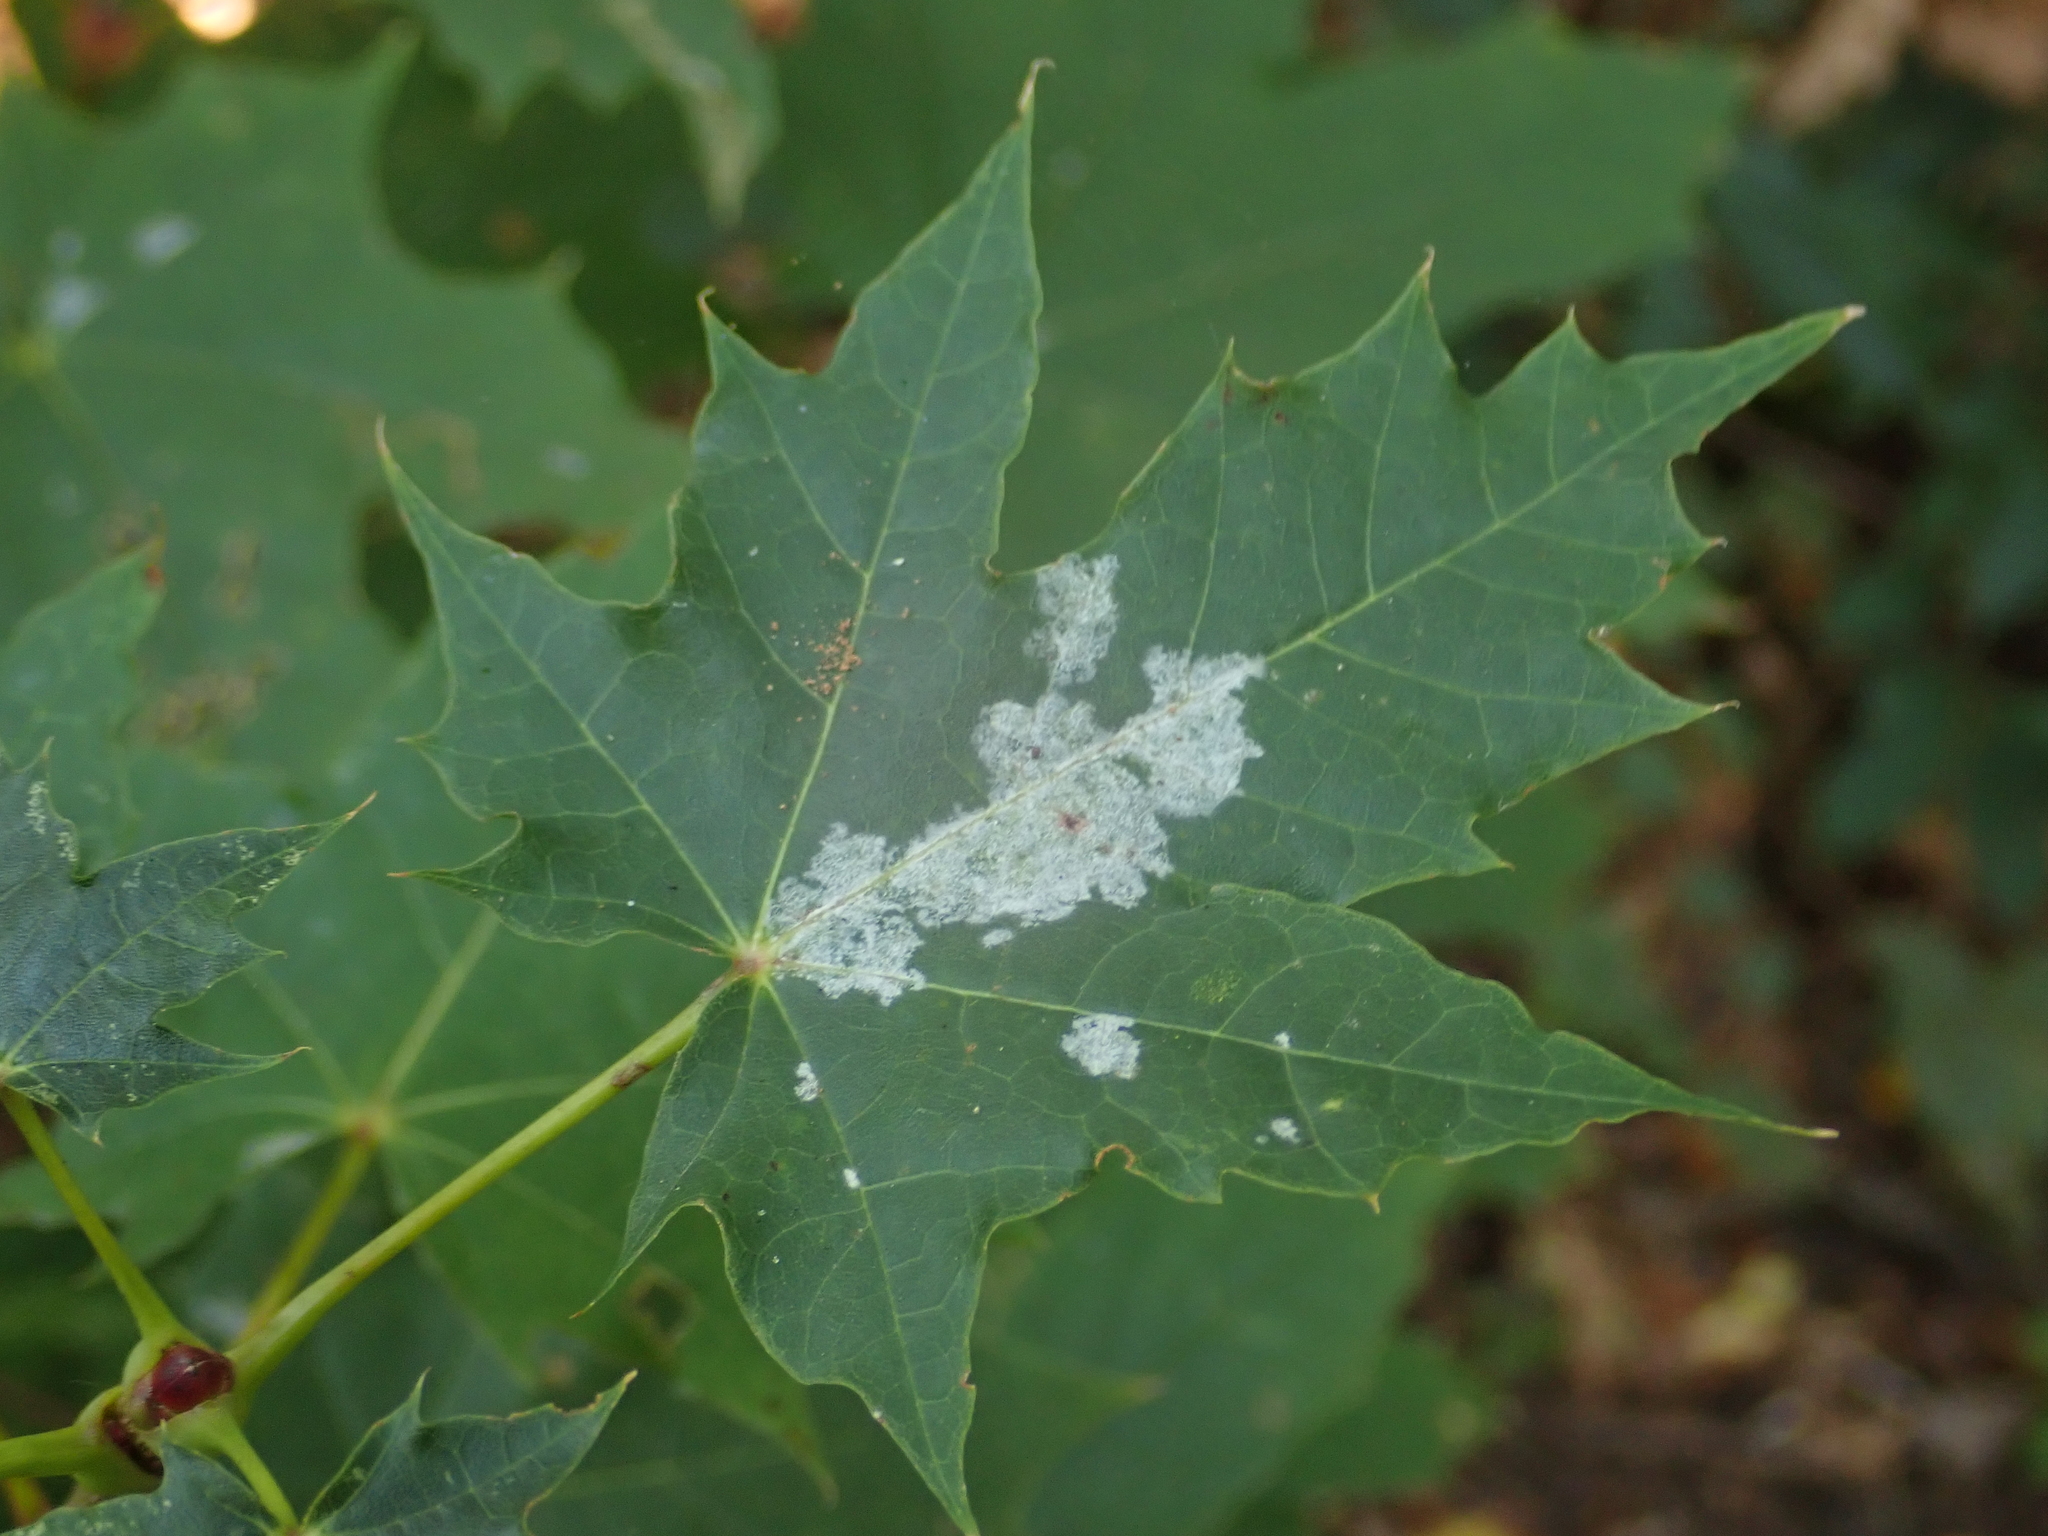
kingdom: Fungi
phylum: Ascomycota
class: Leotiomycetes
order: Helotiales
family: Erysiphaceae
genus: Sawadaea
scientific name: Sawadaea tulasnei
